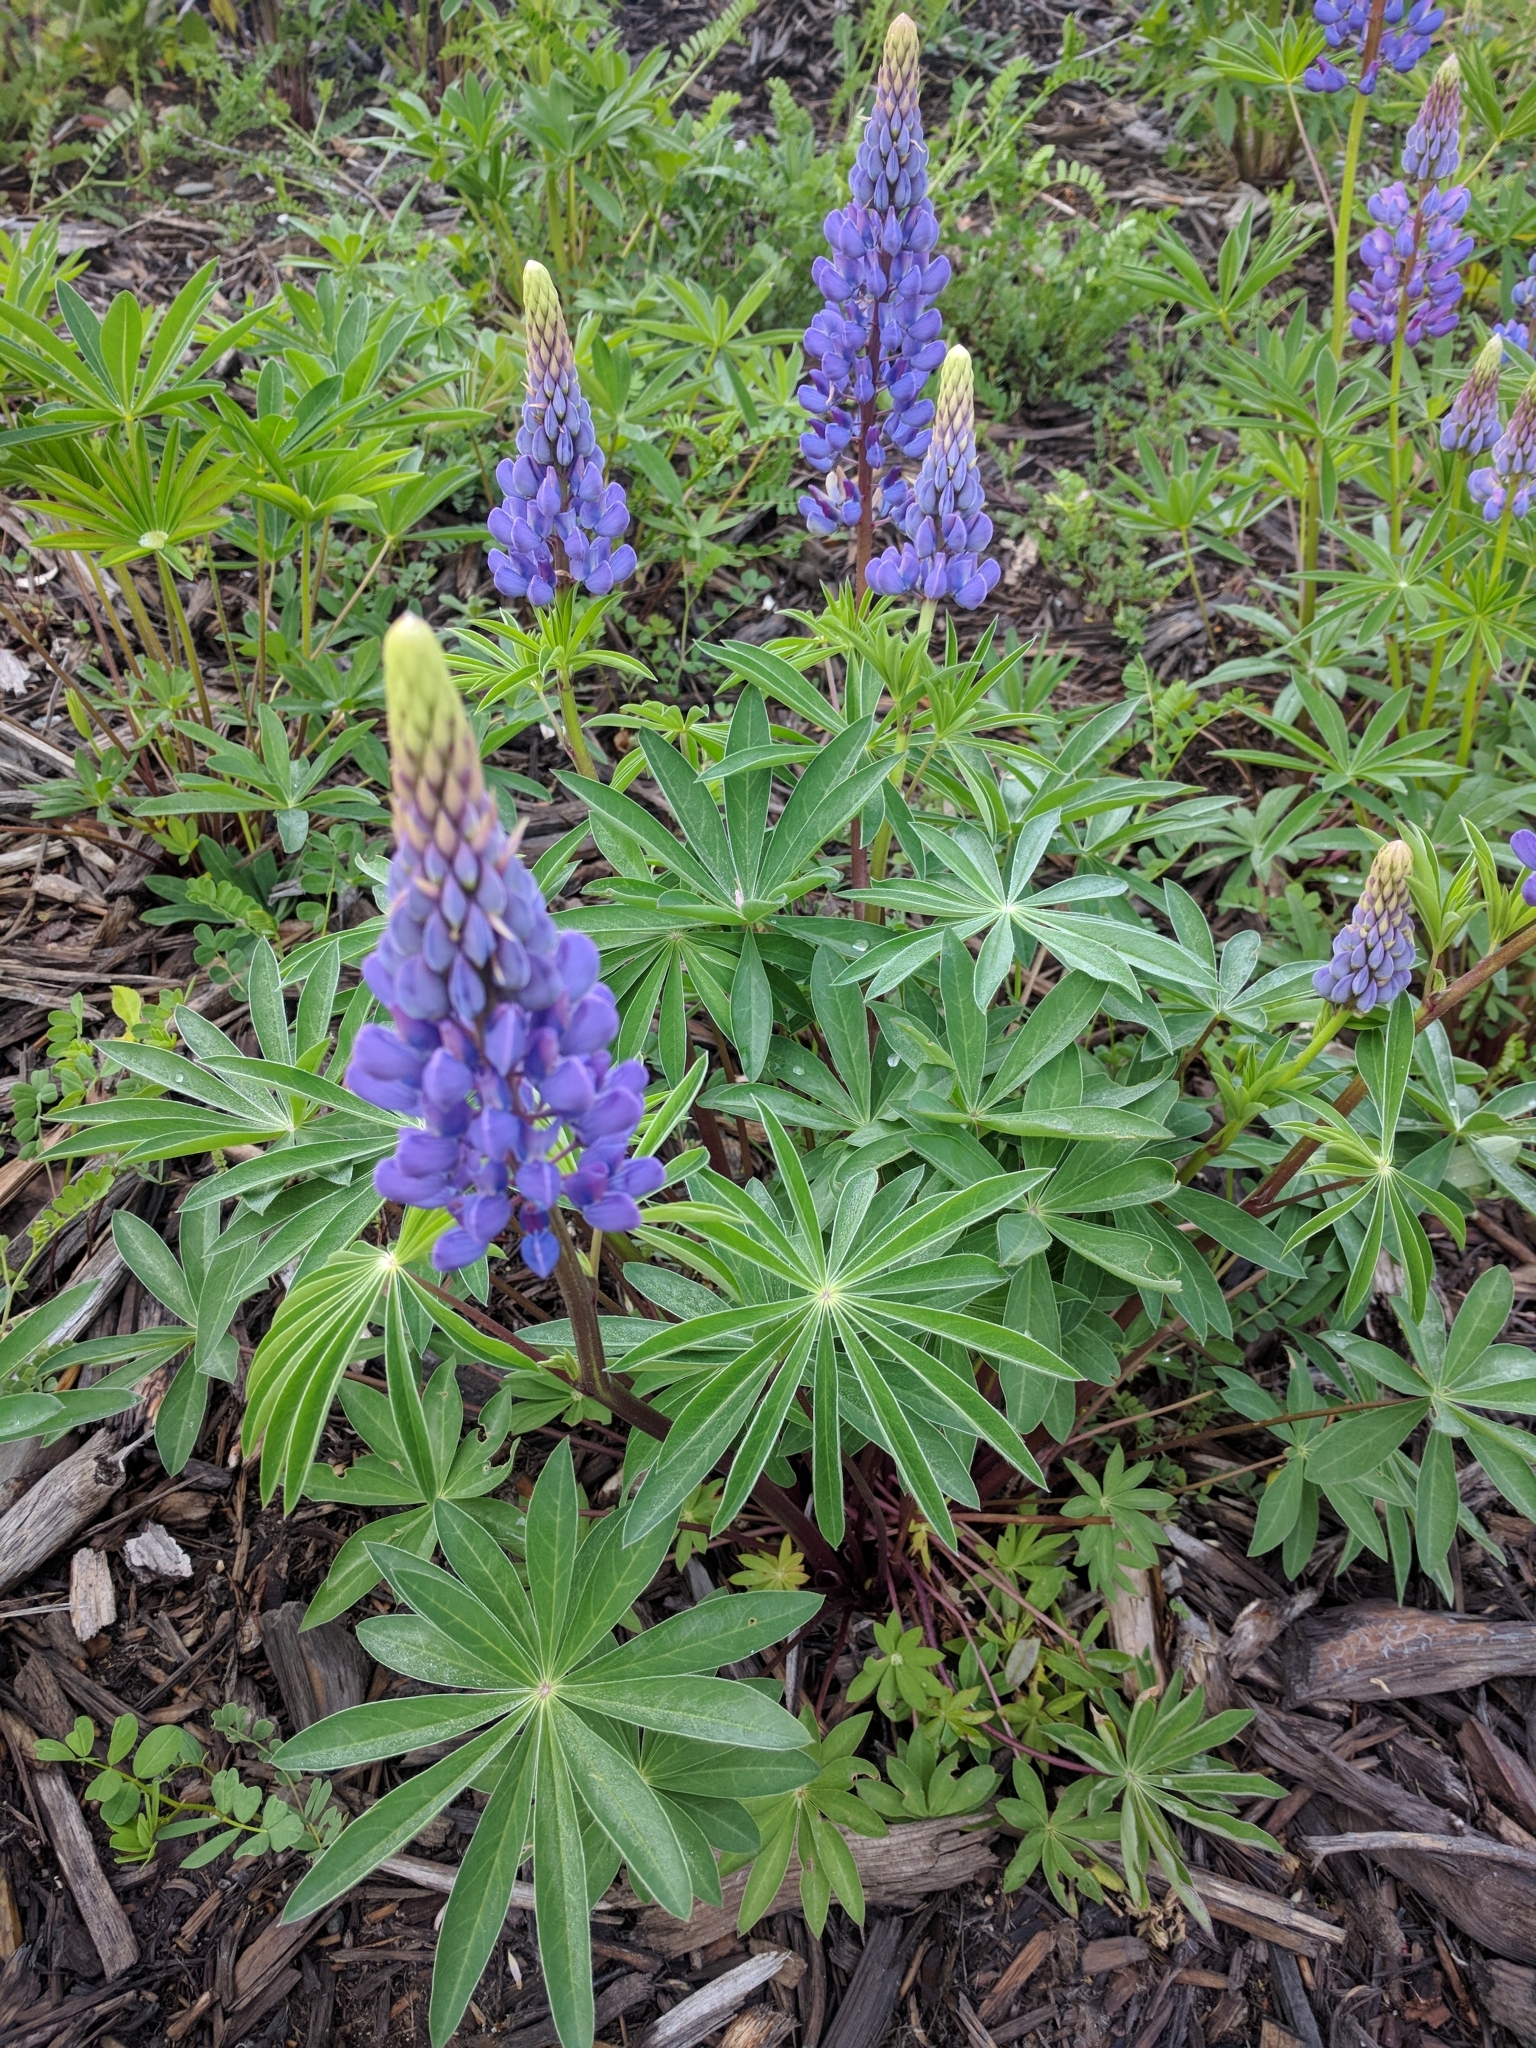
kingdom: Plantae
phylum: Tracheophyta
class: Magnoliopsida
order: Fabales
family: Fabaceae
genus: Lupinus
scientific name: Lupinus polyphyllus
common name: Garden lupin
